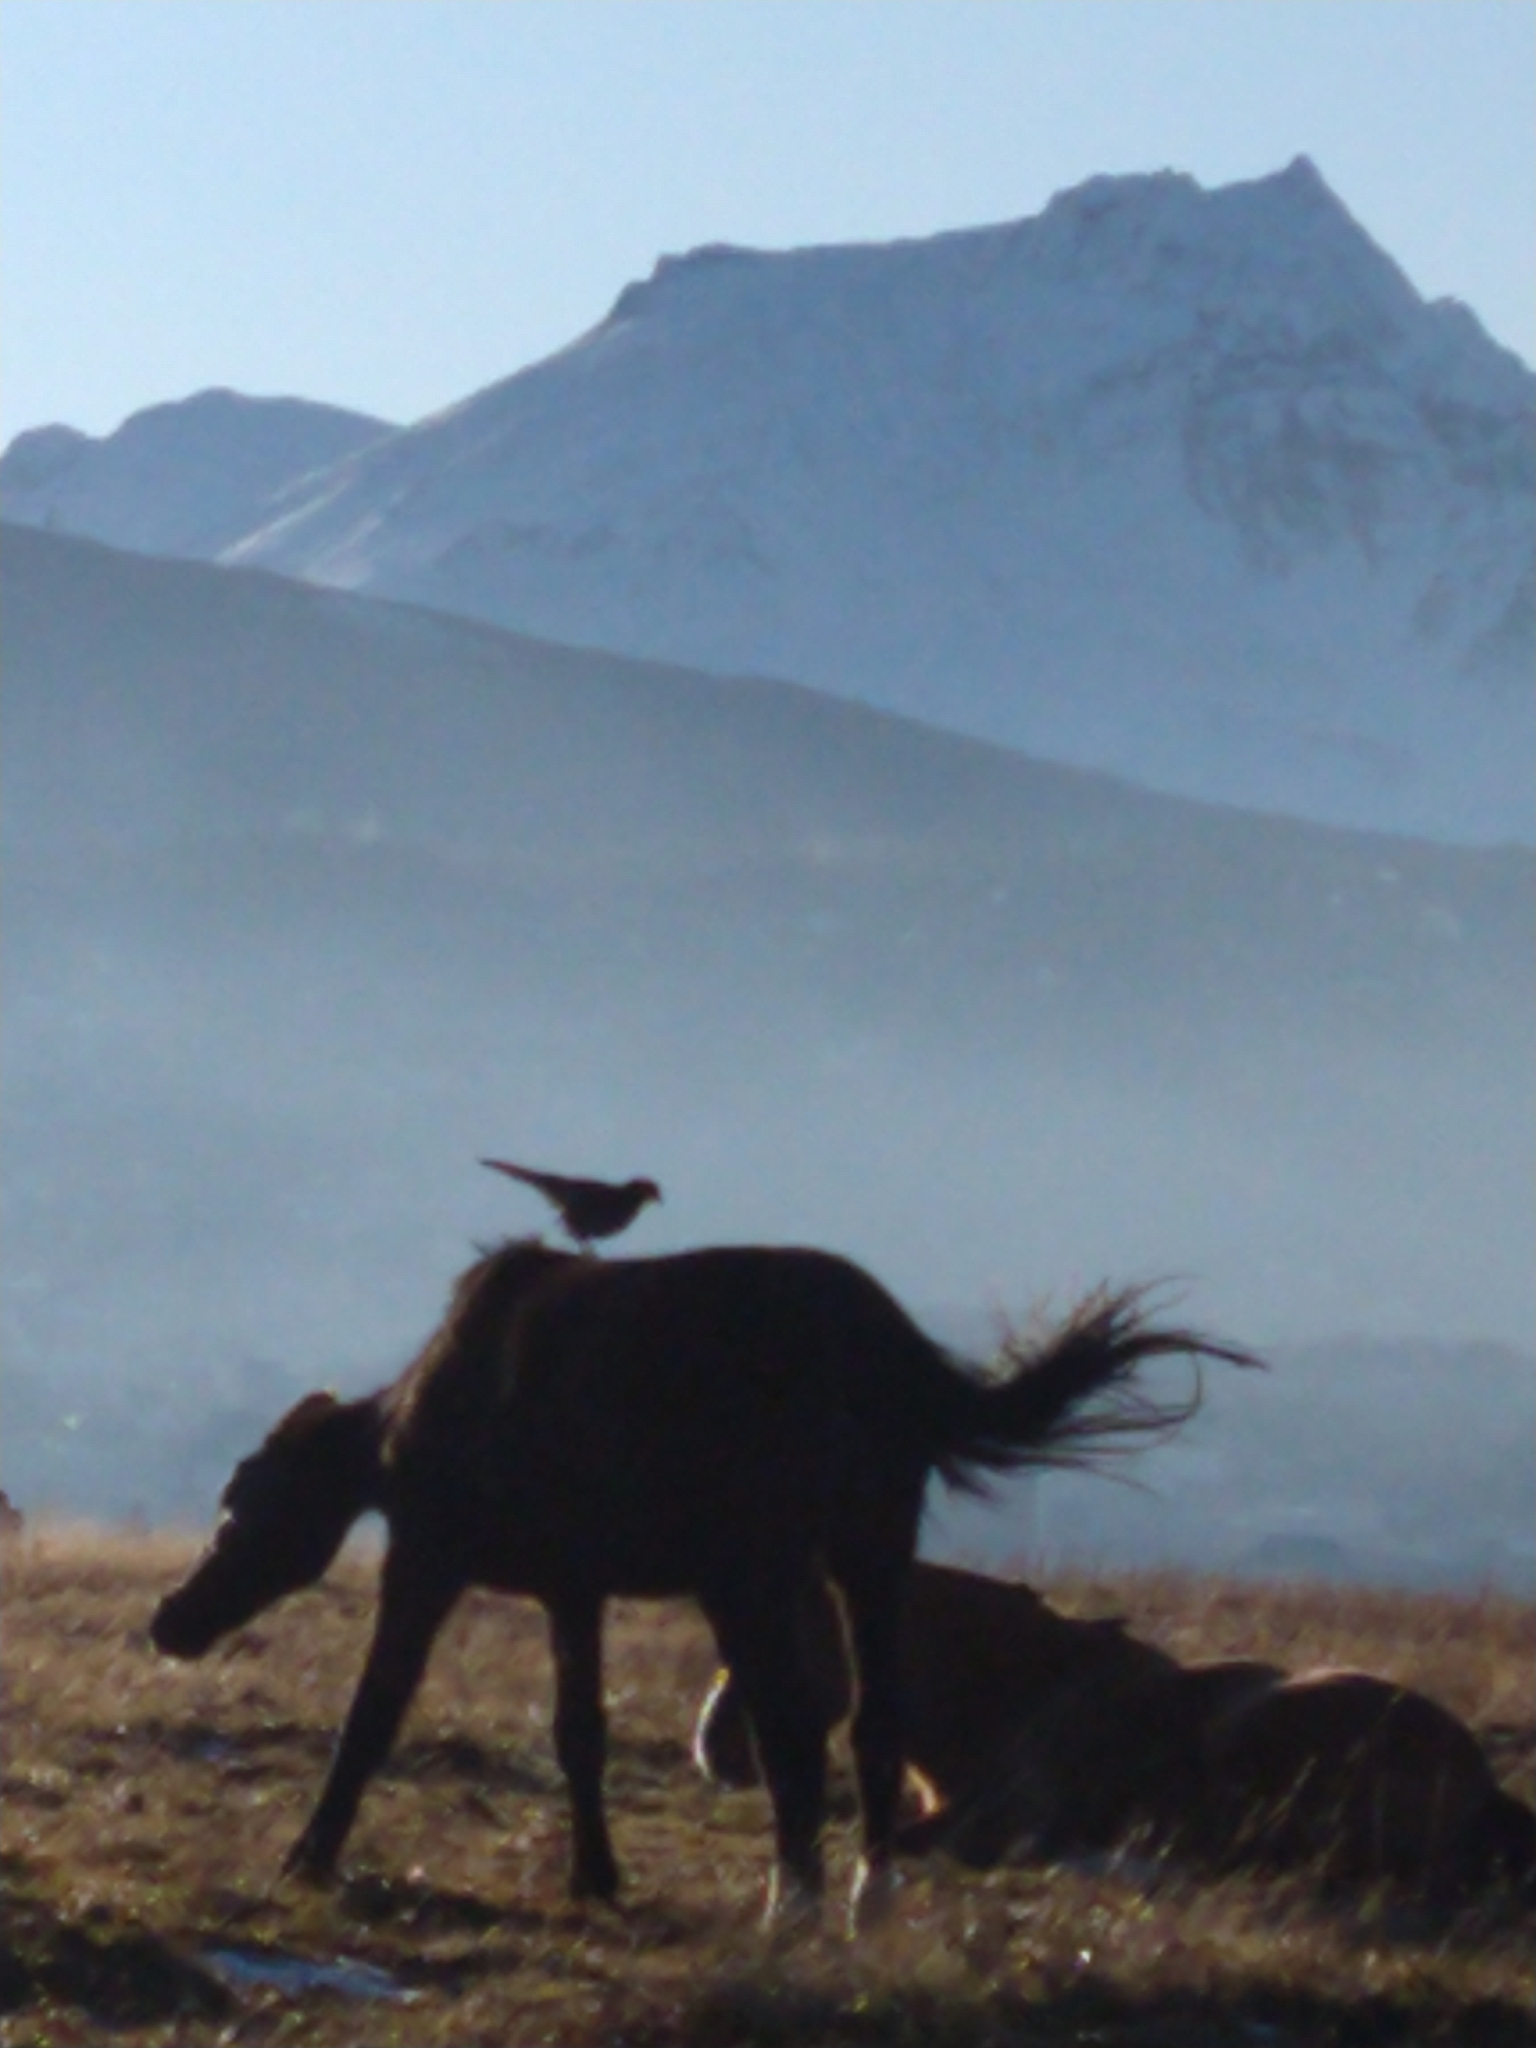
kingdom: Animalia
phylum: Chordata
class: Aves
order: Falconiformes
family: Falconidae
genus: Daptrius
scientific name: Daptrius
